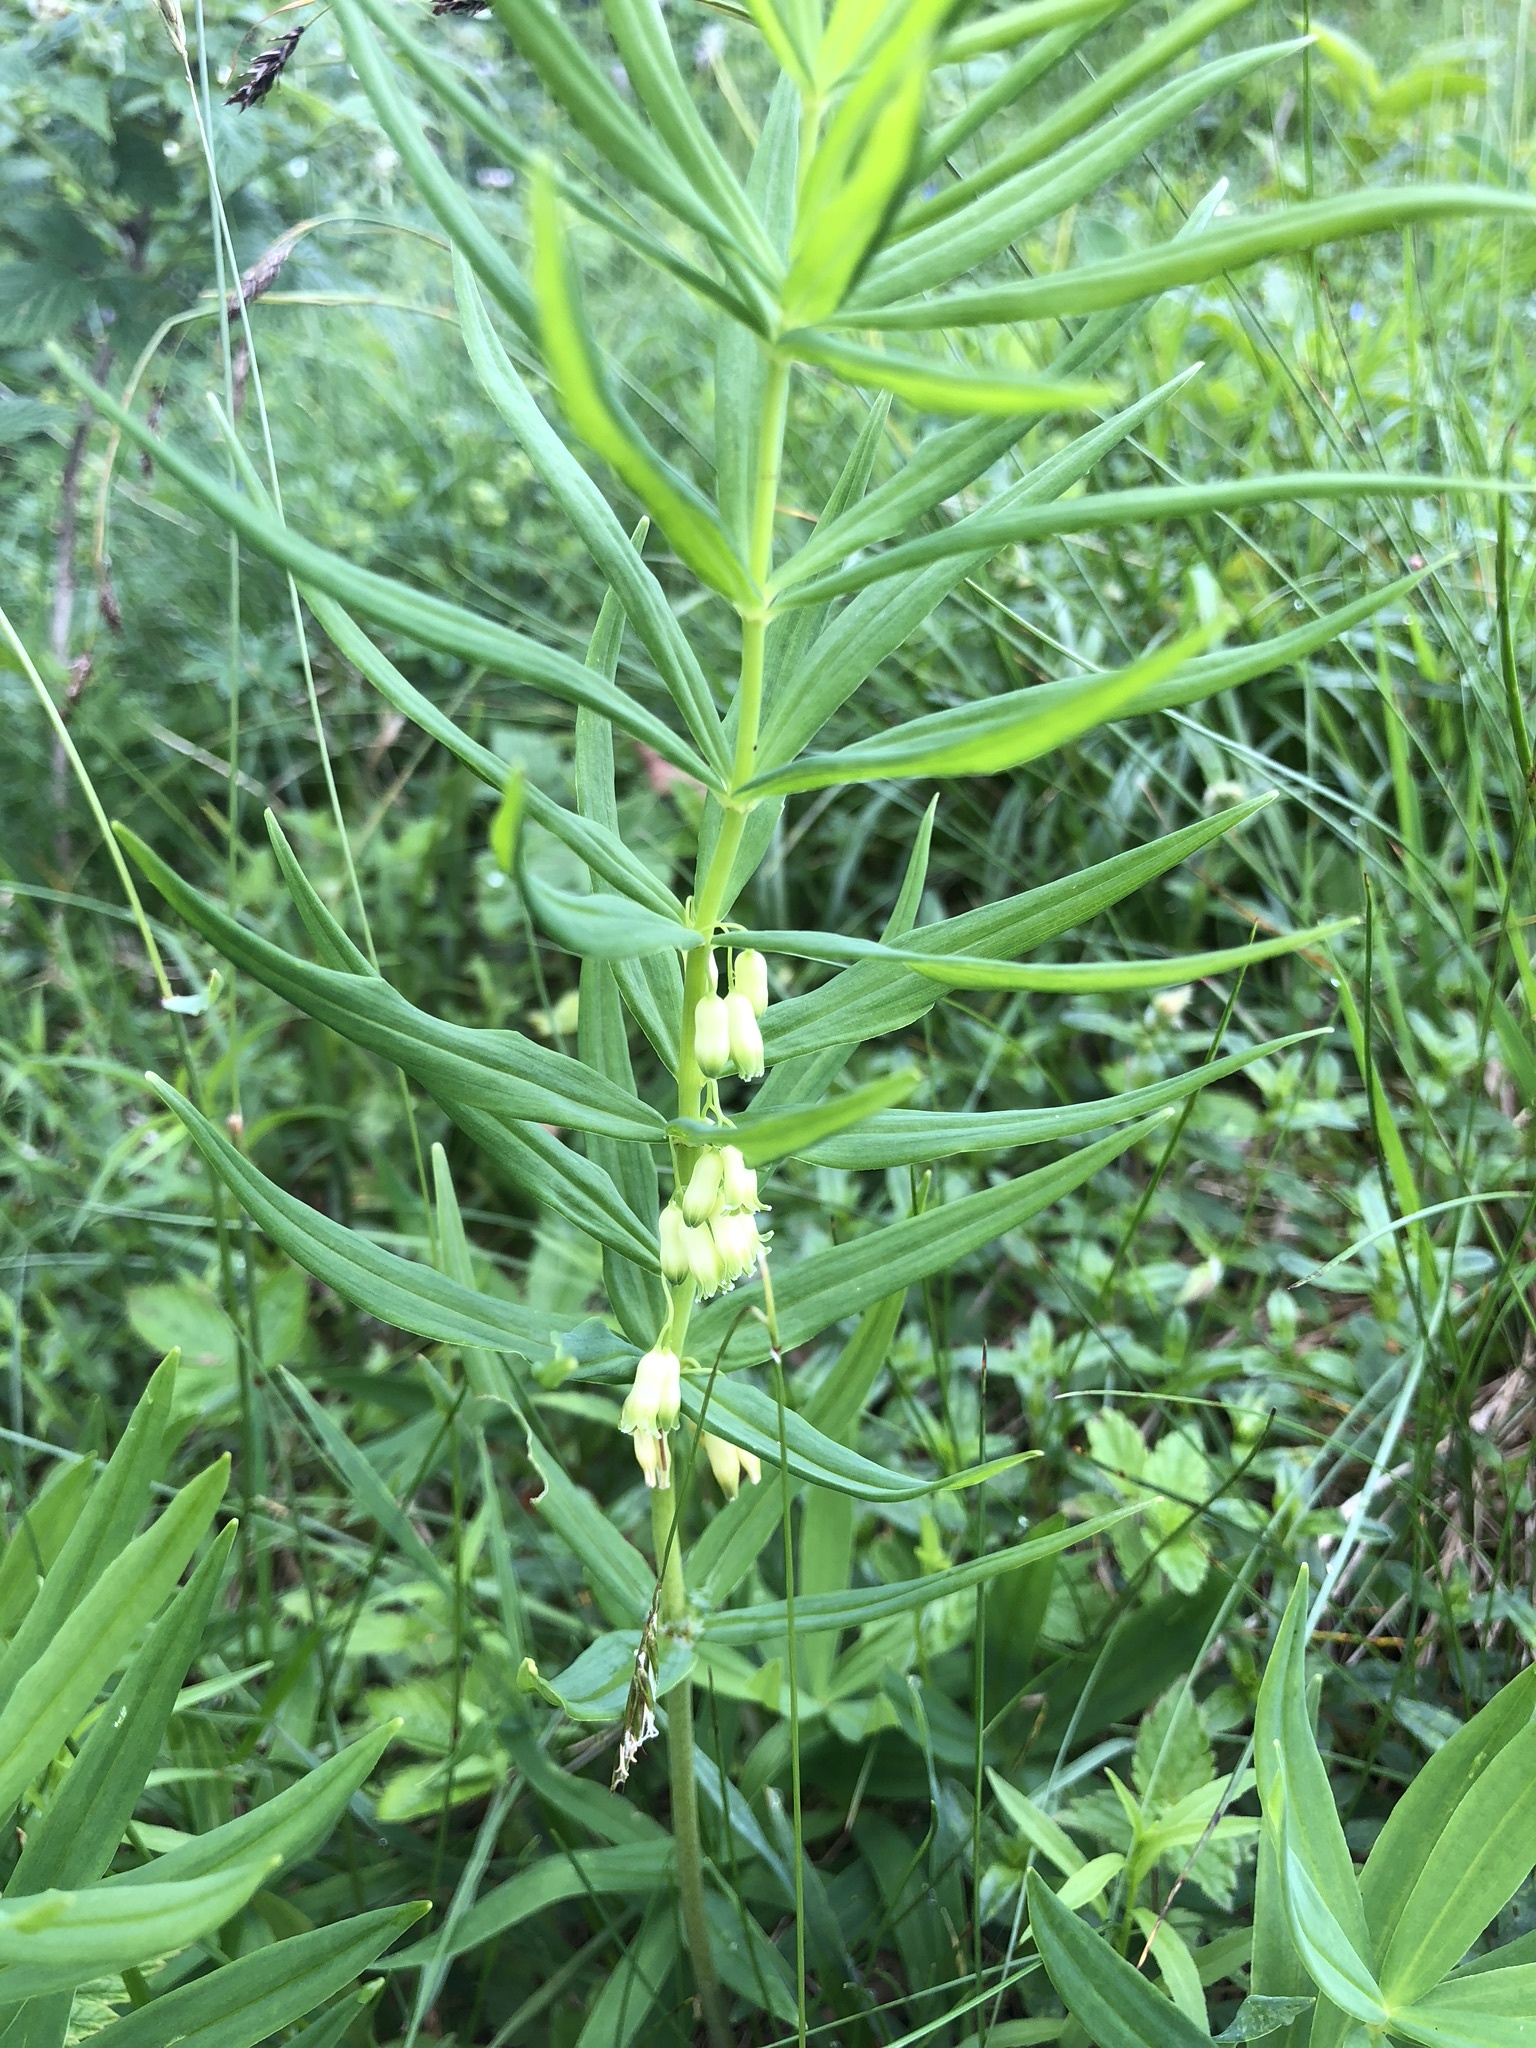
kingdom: Plantae
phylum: Tracheophyta
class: Liliopsida
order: Asparagales
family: Asparagaceae
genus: Polygonatum
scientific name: Polygonatum verticillatum
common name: Whorled solomon's-seal
